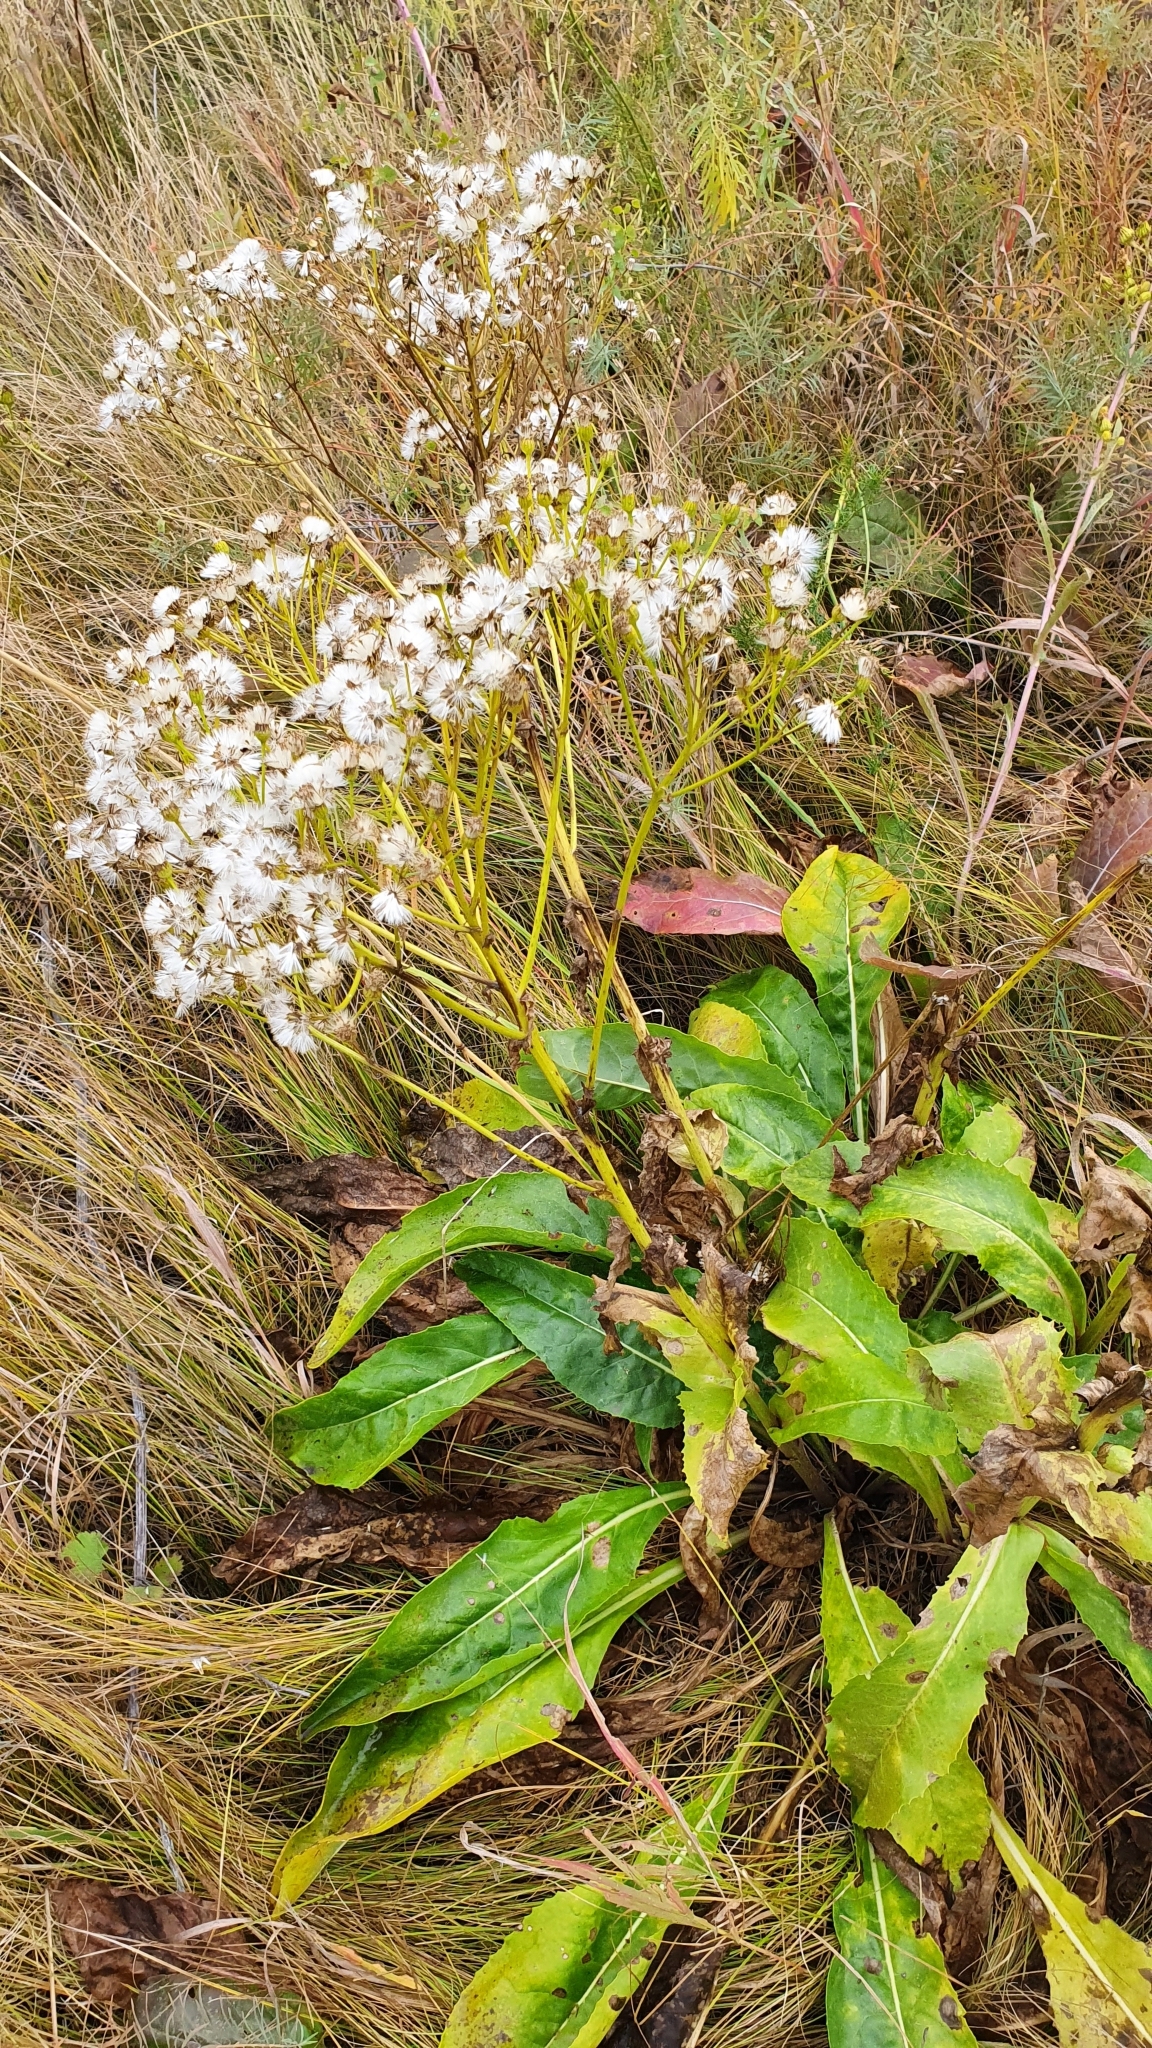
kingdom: Plantae
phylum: Tracheophyta
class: Magnoliopsida
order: Asterales
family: Asteraceae
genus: Senecio
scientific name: Senecio doria
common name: Golden ragwort
